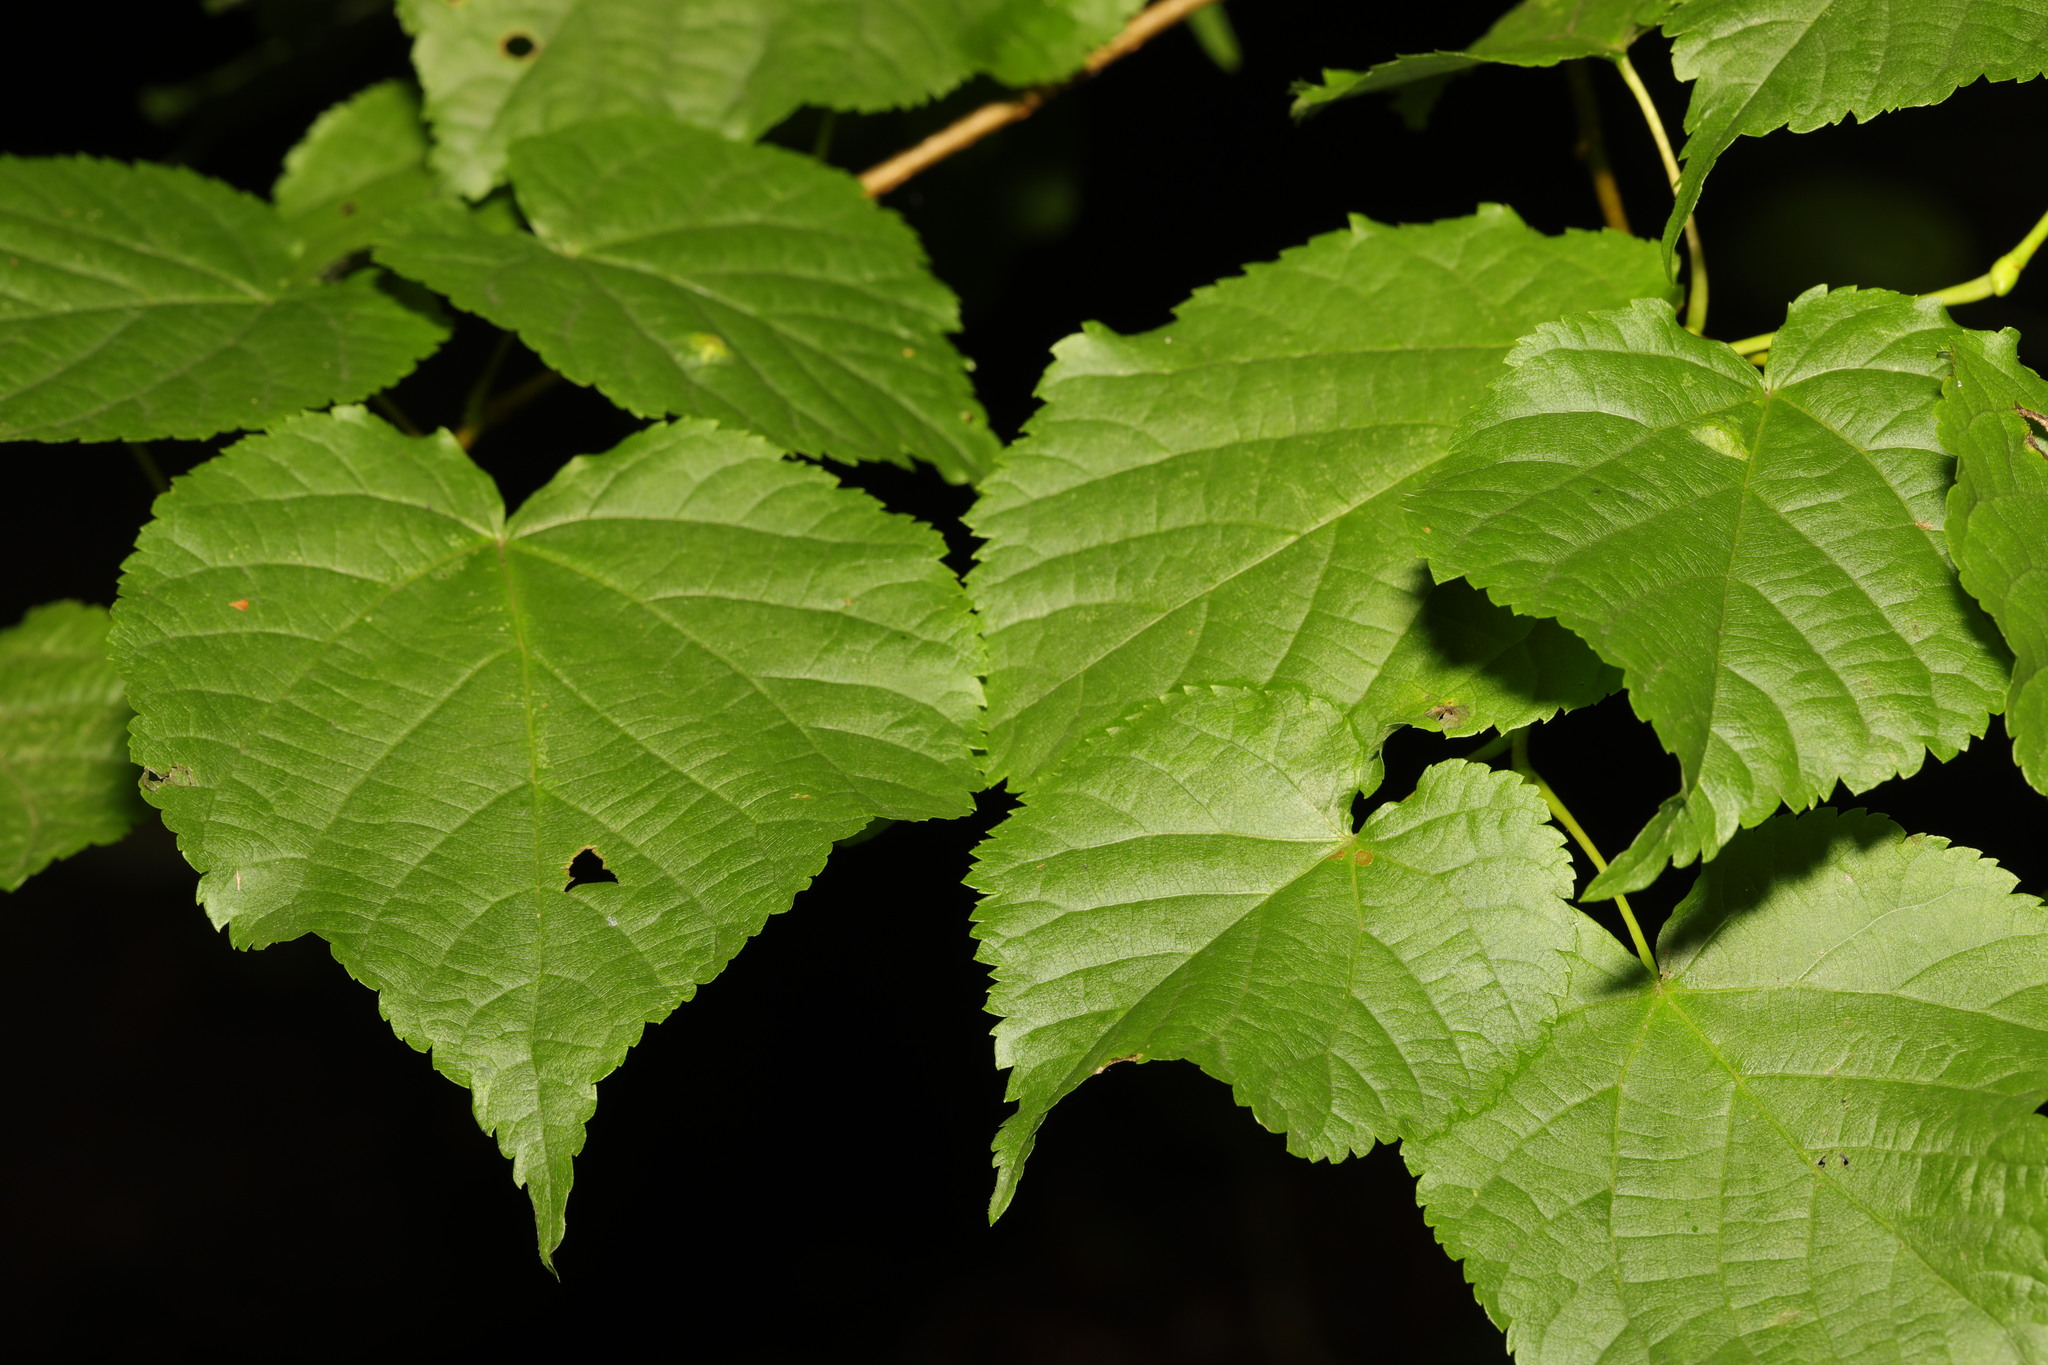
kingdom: Plantae
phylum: Tracheophyta
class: Magnoliopsida
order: Malvales
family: Malvaceae
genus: Tilia
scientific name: Tilia europaea
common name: European linden
